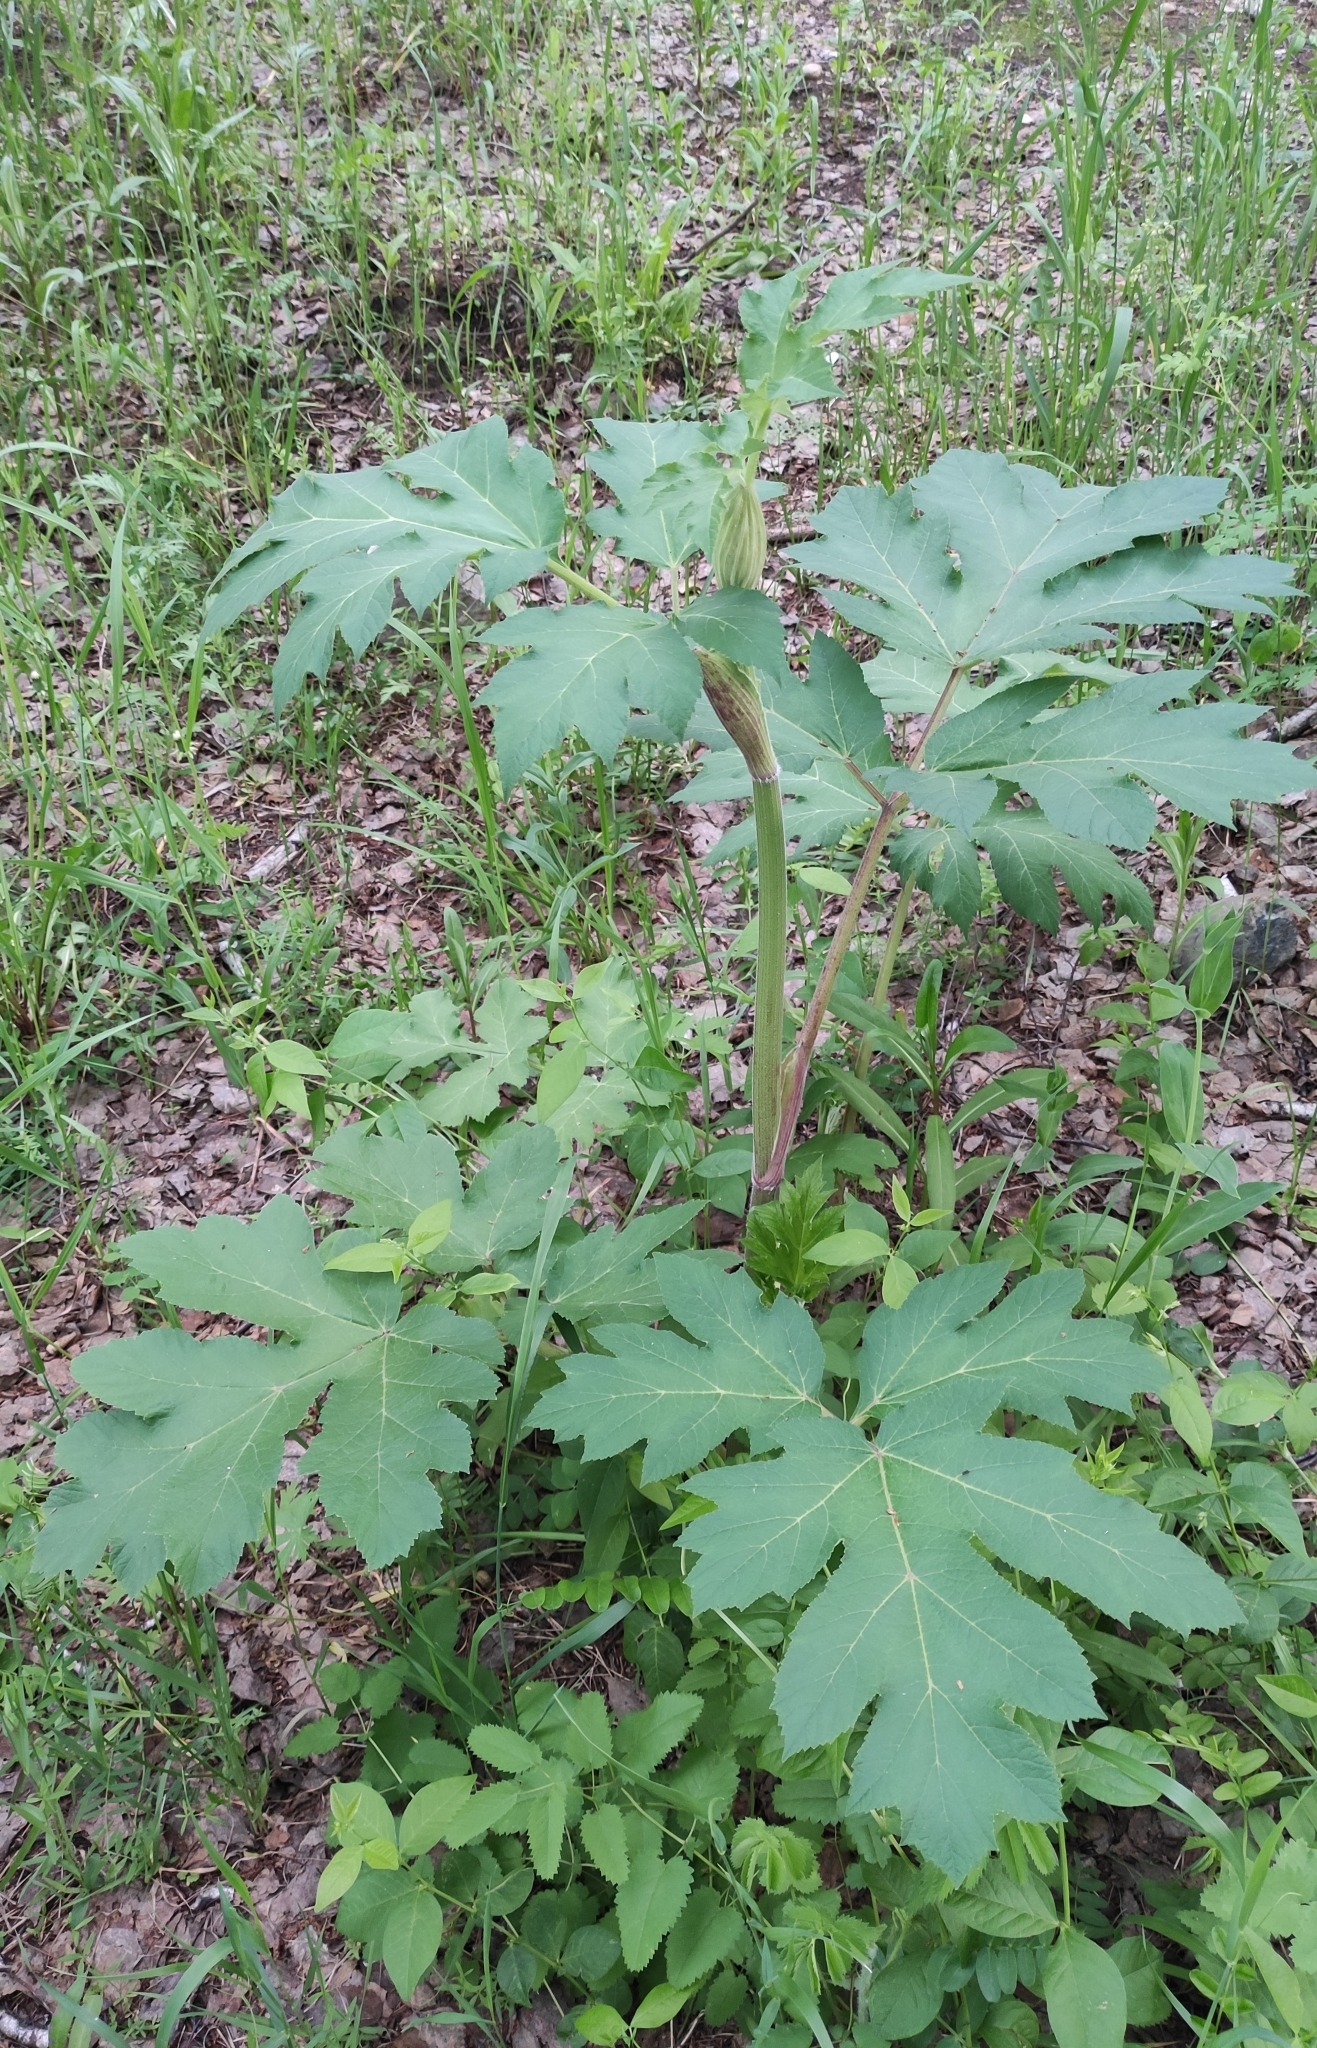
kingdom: Plantae
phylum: Tracheophyta
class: Magnoliopsida
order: Apiales
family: Apiaceae
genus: Heracleum
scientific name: Heracleum dissectum
